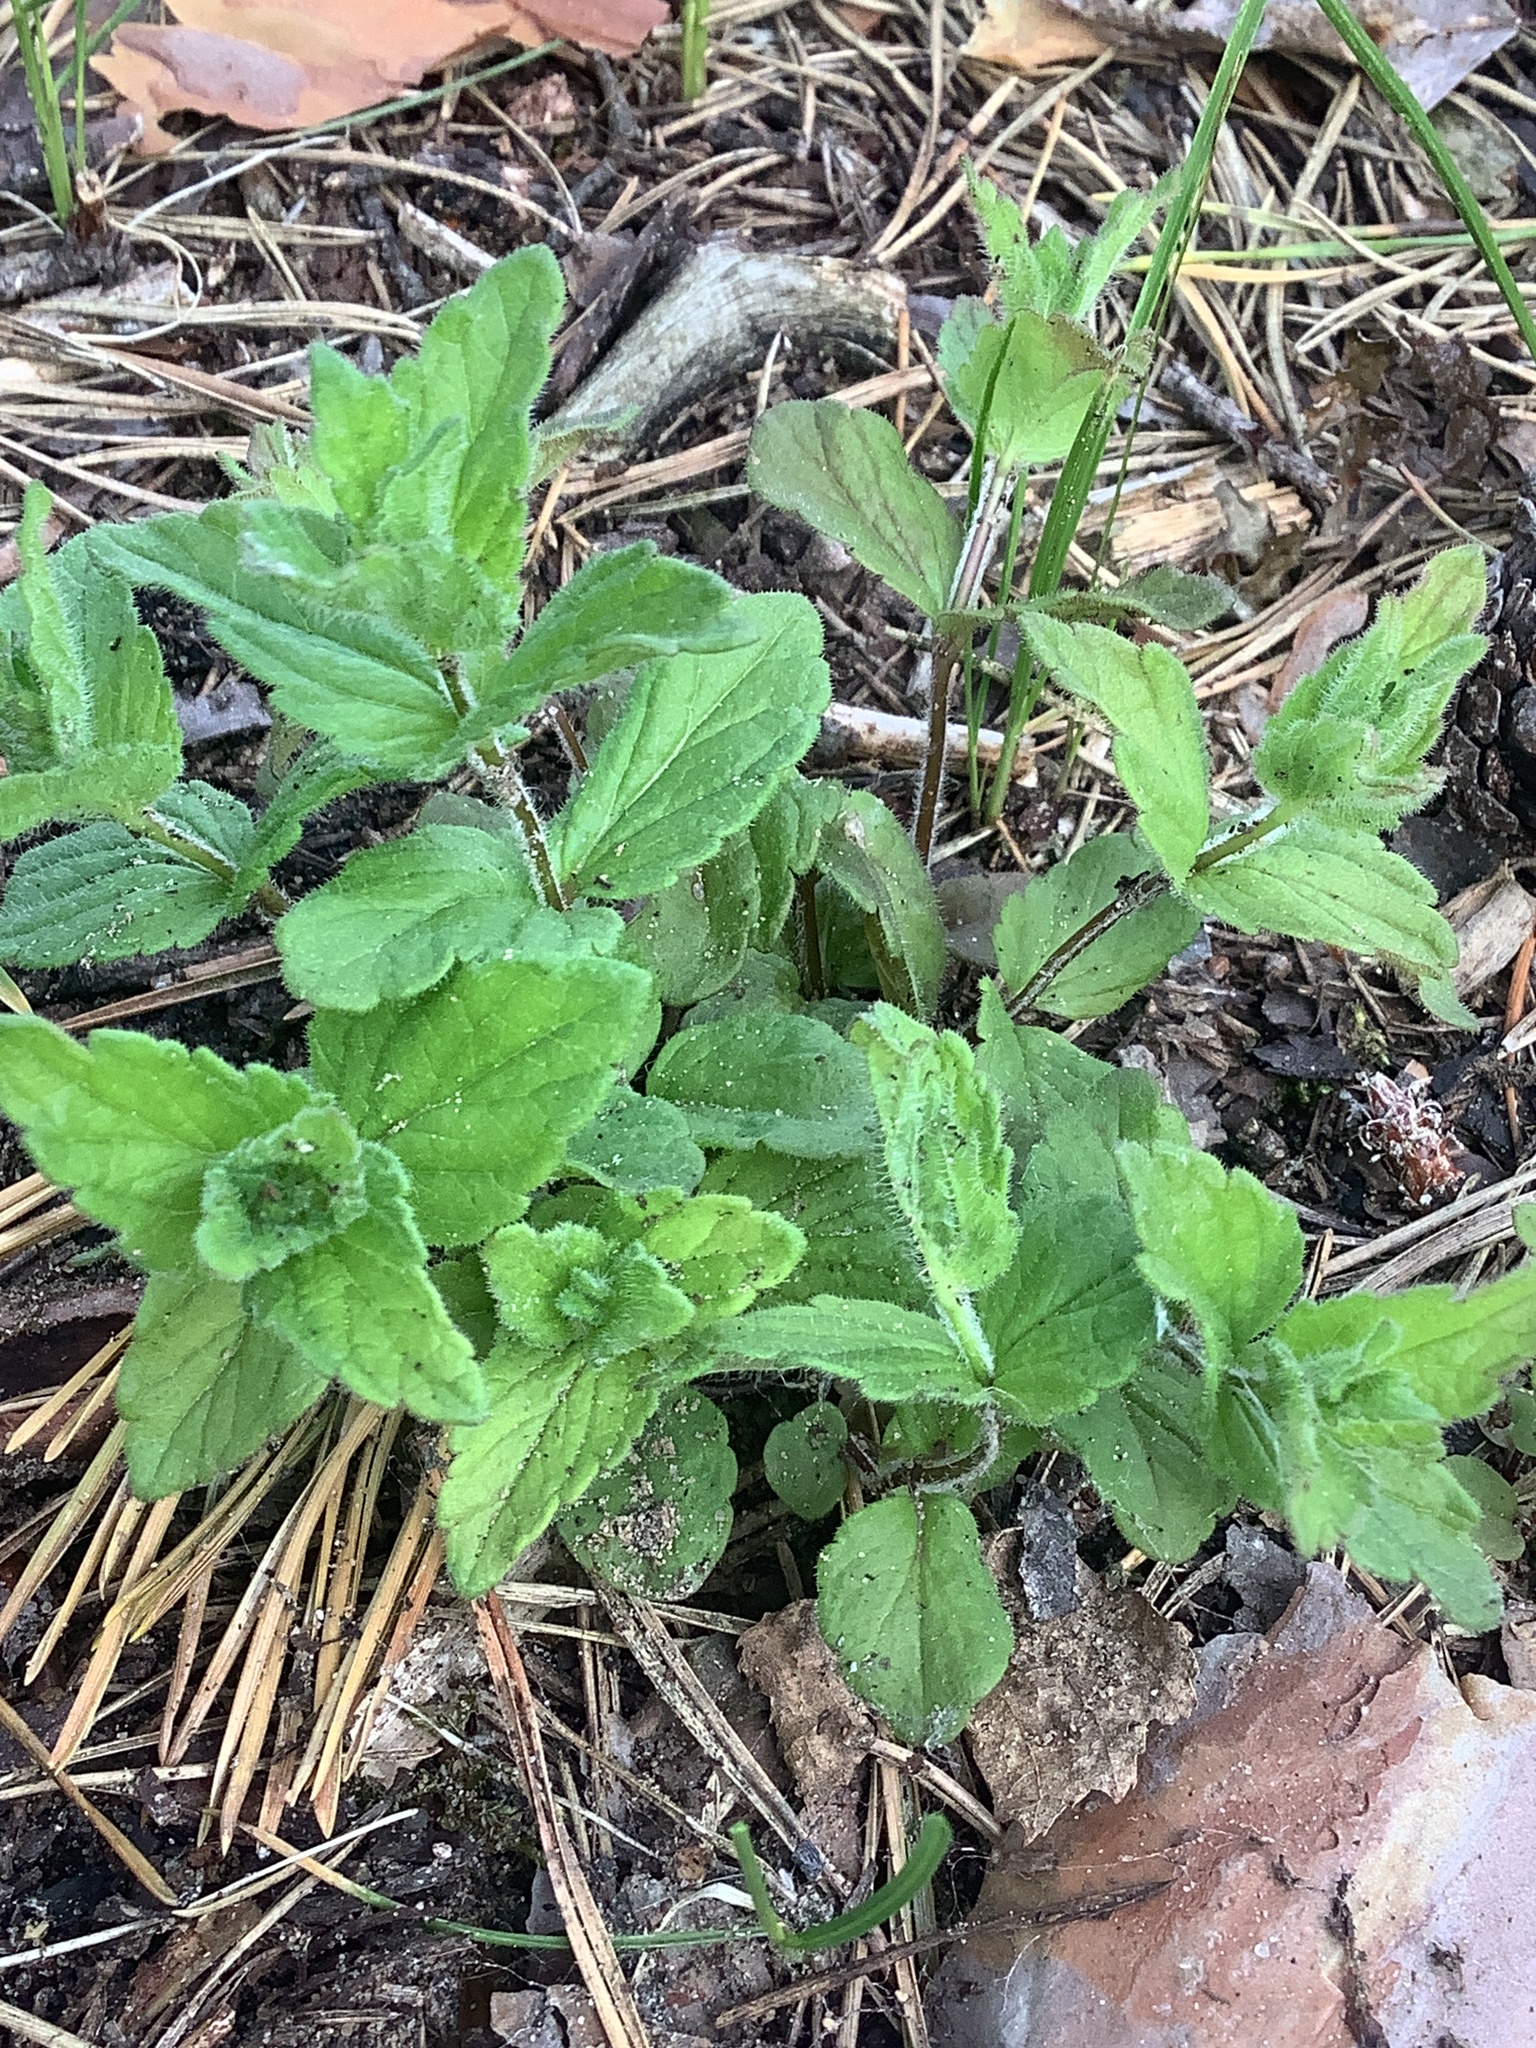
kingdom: Plantae
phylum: Tracheophyta
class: Magnoliopsida
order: Lamiales
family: Plantaginaceae
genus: Veronica
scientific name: Veronica chamaedrys
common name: Germander speedwell
